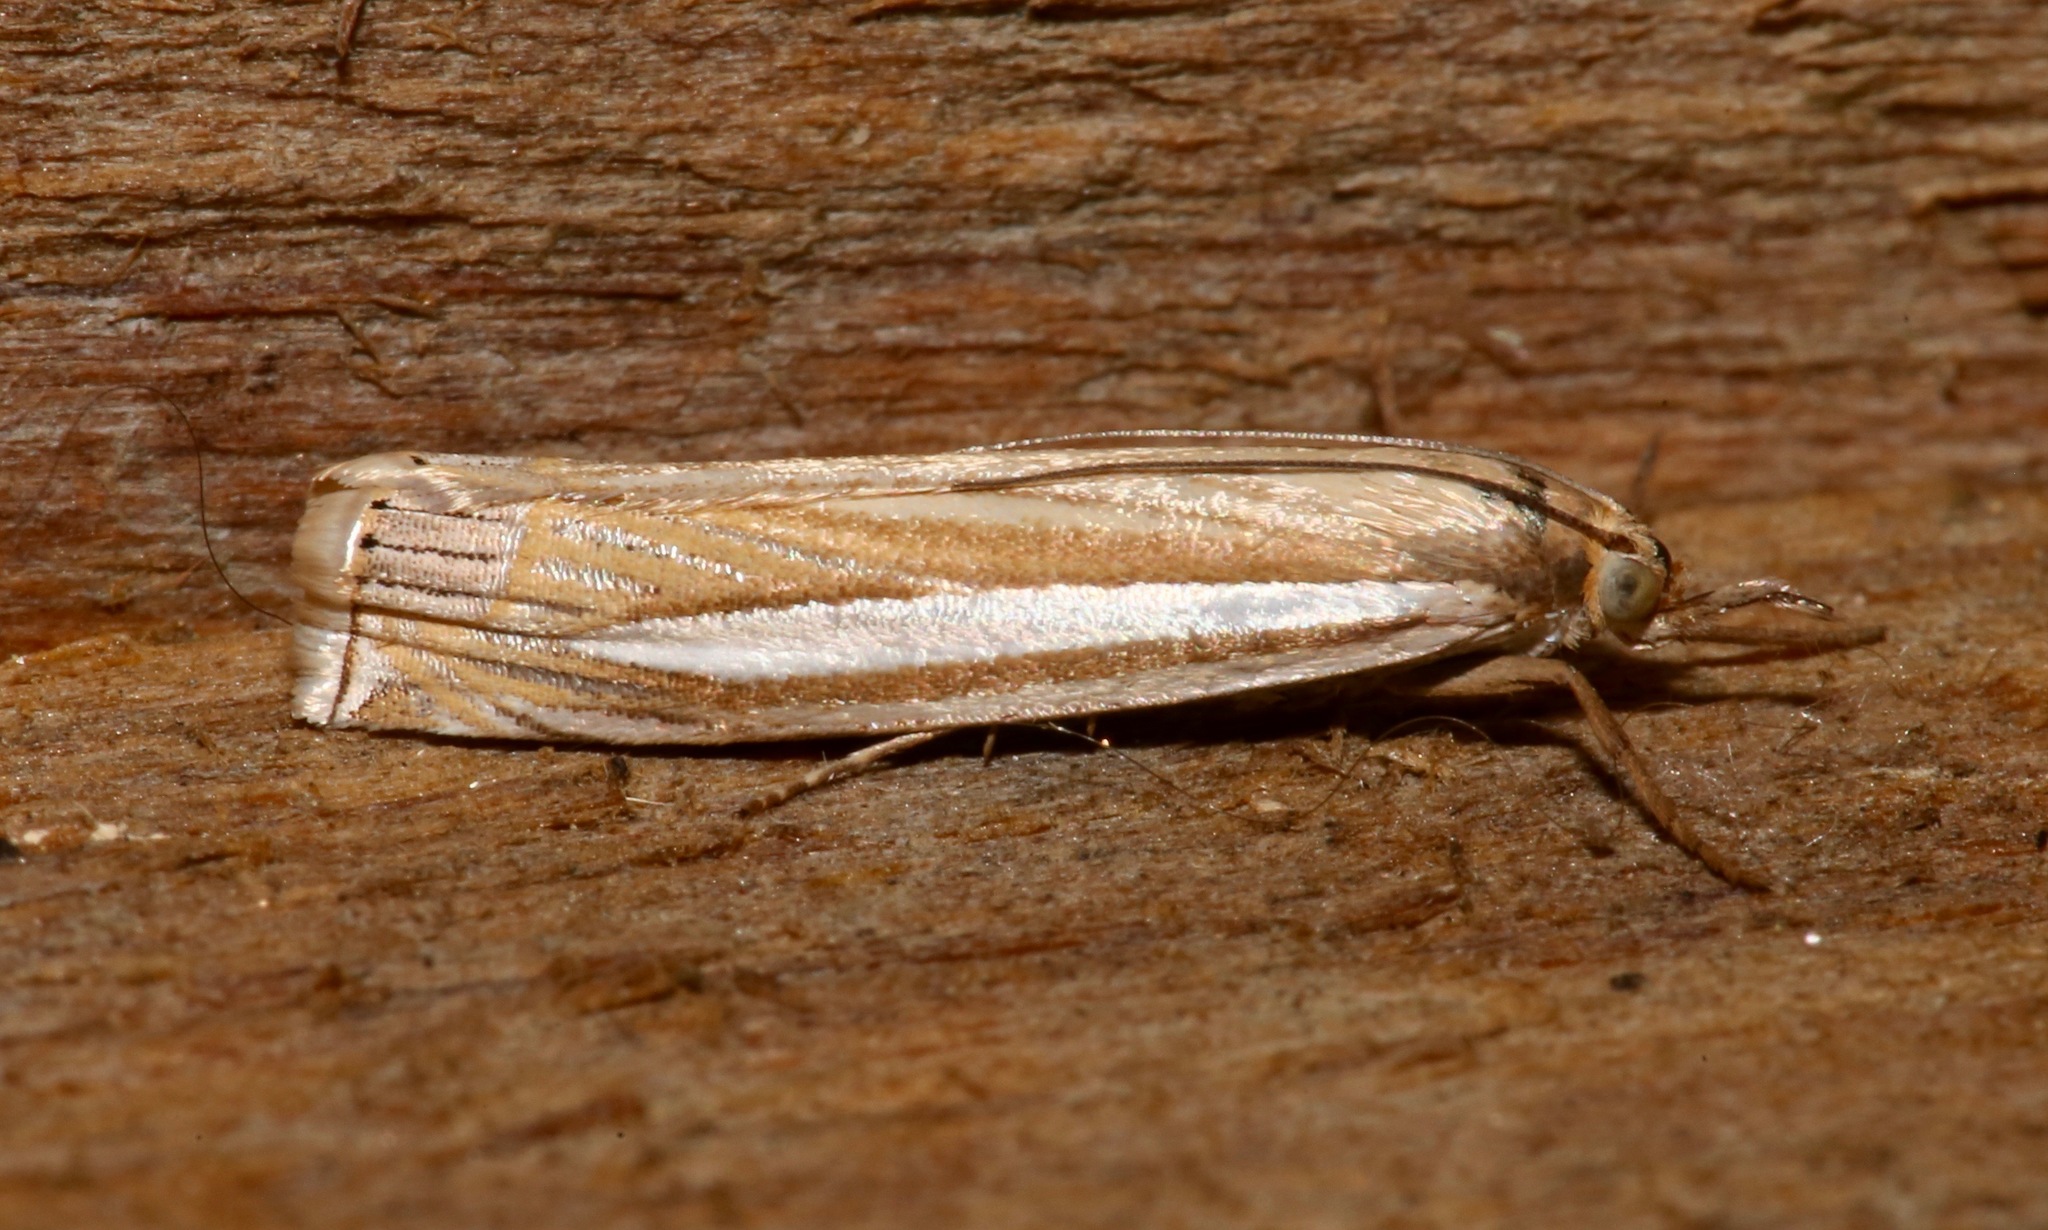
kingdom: Animalia
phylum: Arthropoda
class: Insecta
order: Lepidoptera
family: Crambidae
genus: Crambus
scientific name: Crambus laqueatellus
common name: Eastern grass-veneer
